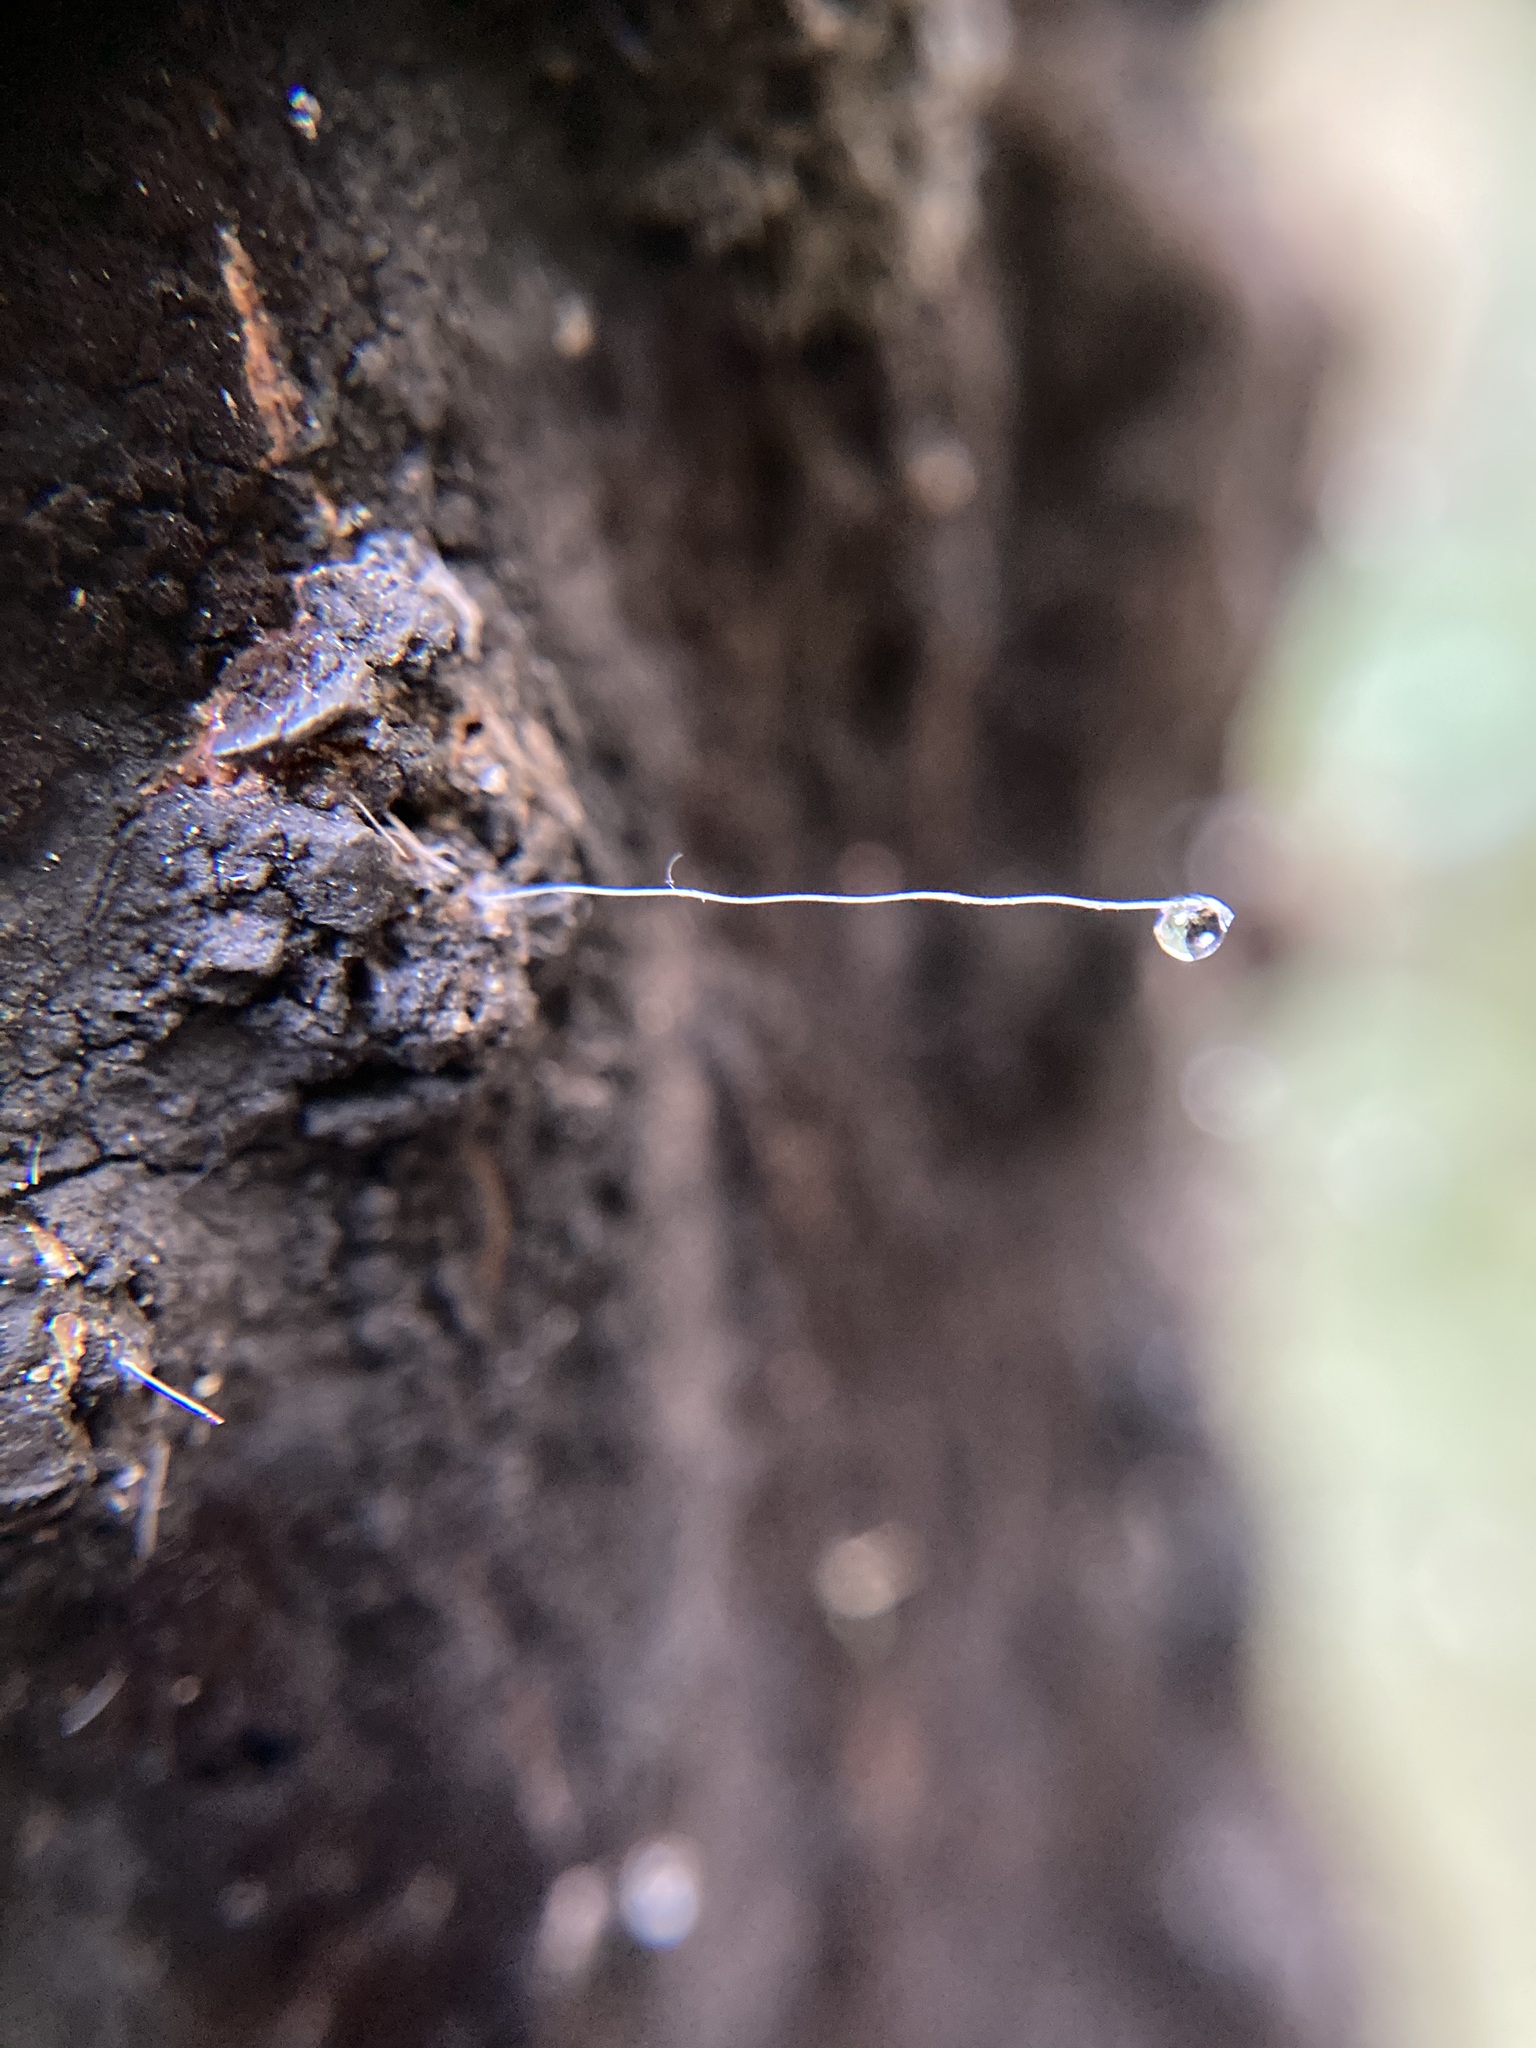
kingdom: Animalia
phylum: Arthropoda
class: Insecta
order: Hemiptera
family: Margarodidae
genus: Ultracoelostoma
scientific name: Ultracoelostoma brittini
